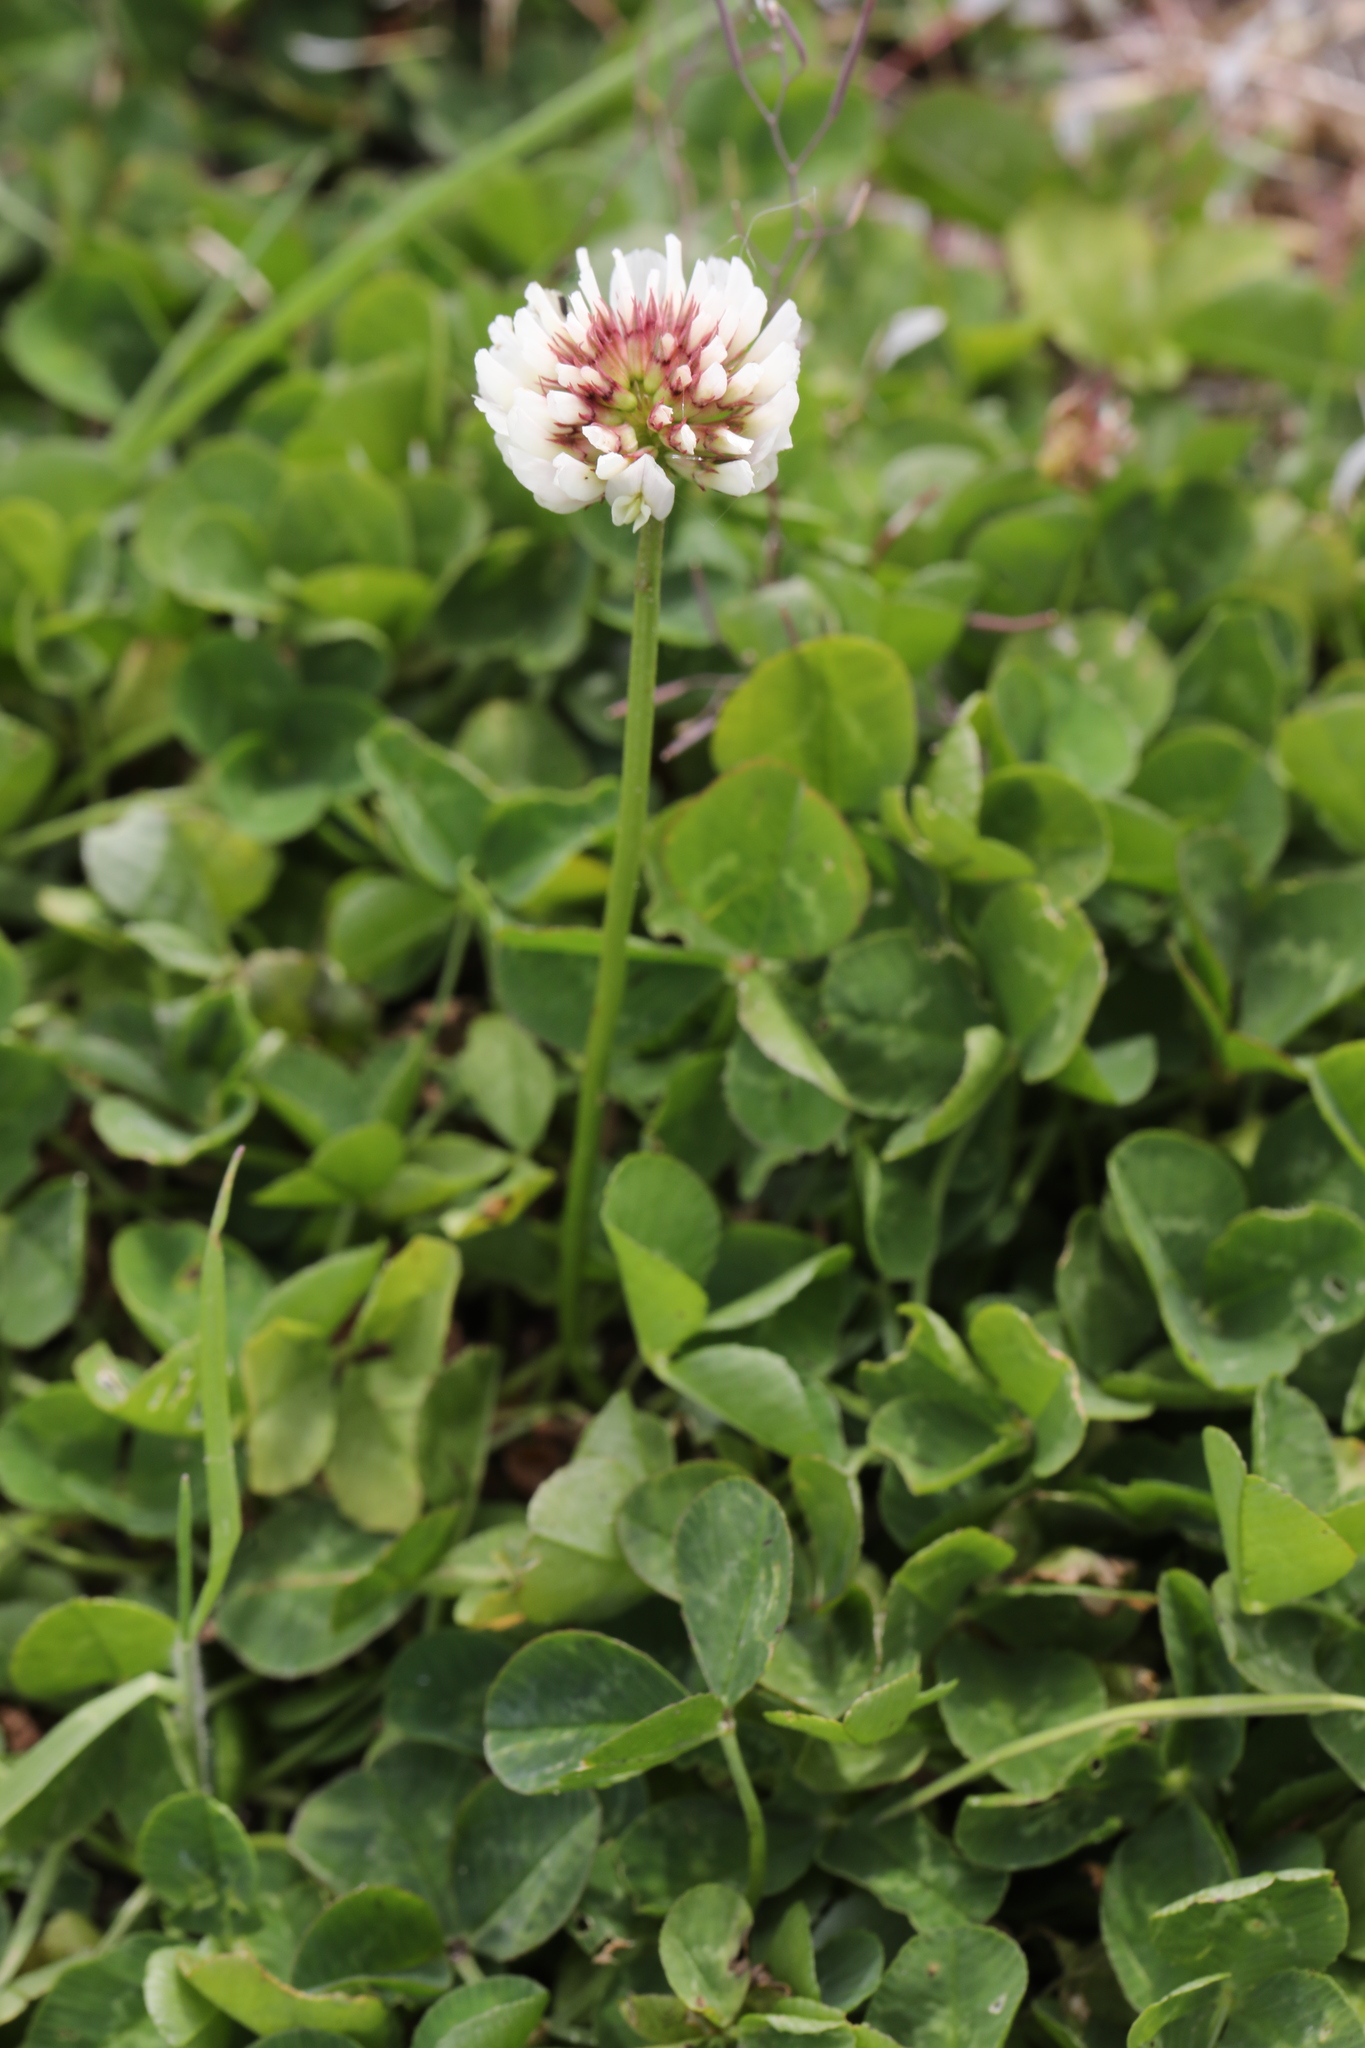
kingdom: Plantae
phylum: Tracheophyta
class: Magnoliopsida
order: Fabales
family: Fabaceae
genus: Trifolium
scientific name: Trifolium repens
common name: White clover
